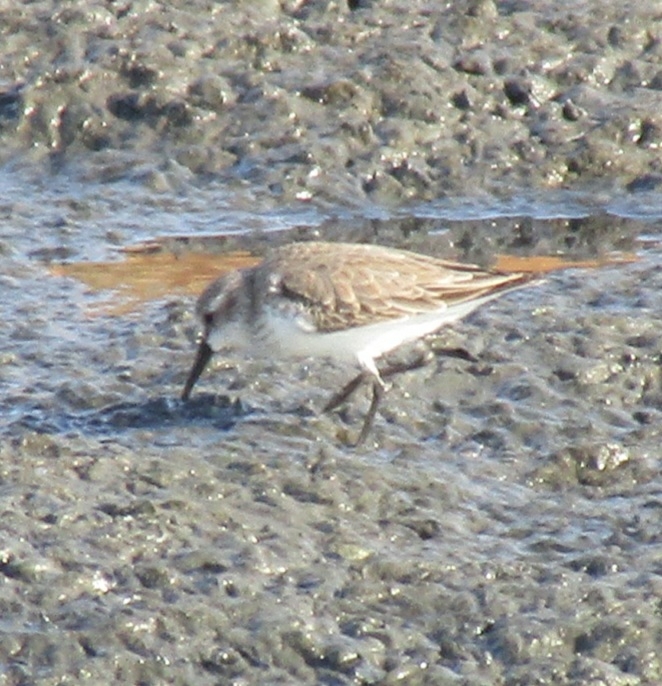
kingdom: Animalia
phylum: Chordata
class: Aves
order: Charadriiformes
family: Scolopacidae
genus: Calidris
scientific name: Calidris mauri
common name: Western sandpiper
